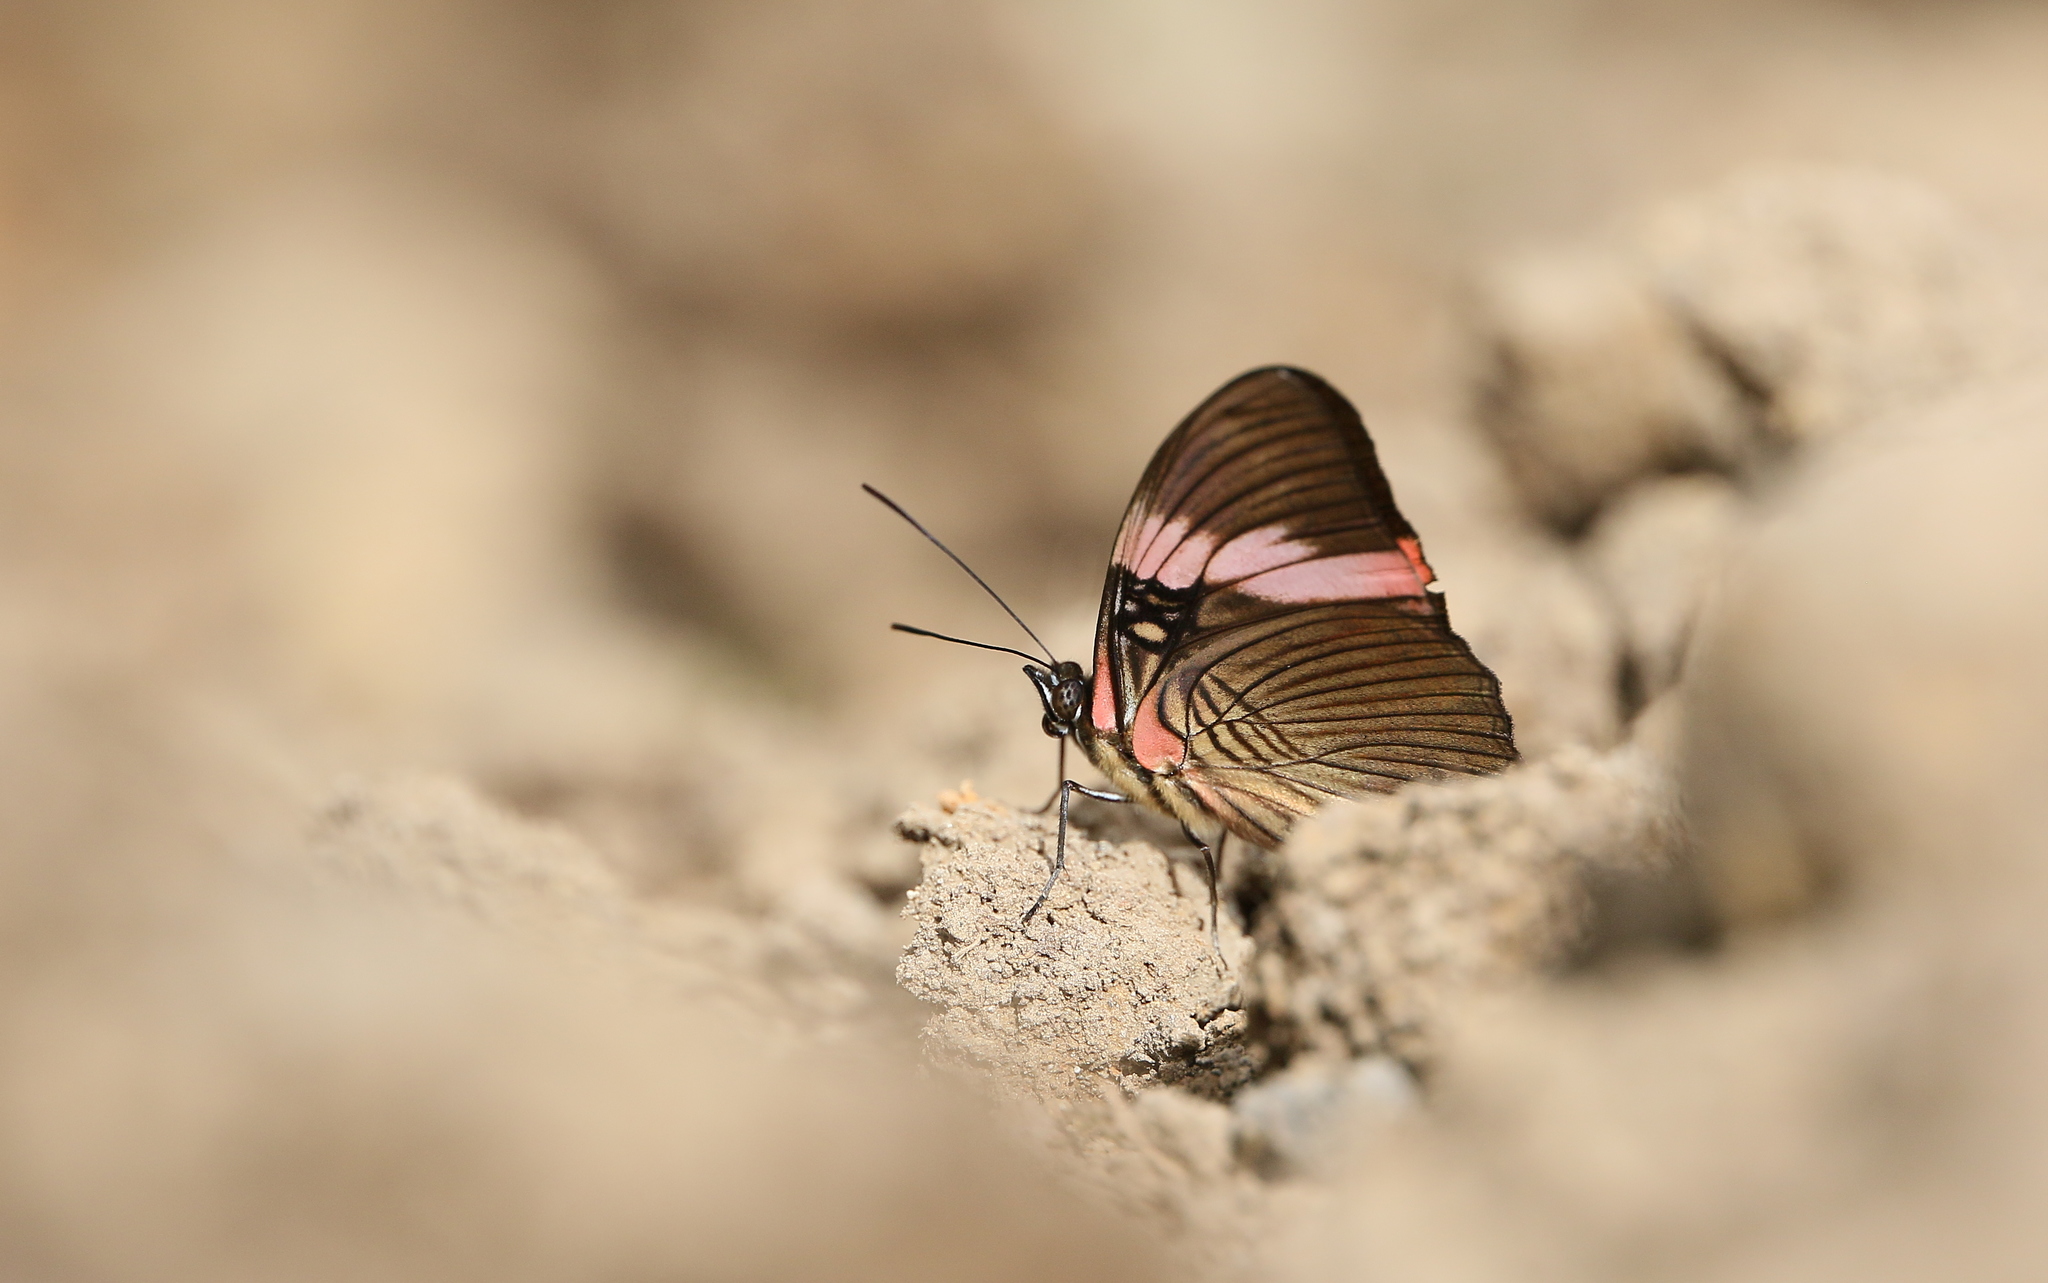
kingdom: Animalia
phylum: Arthropoda
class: Insecta
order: Lepidoptera
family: Nymphalidae
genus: Limenitis
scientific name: Limenitis isis
